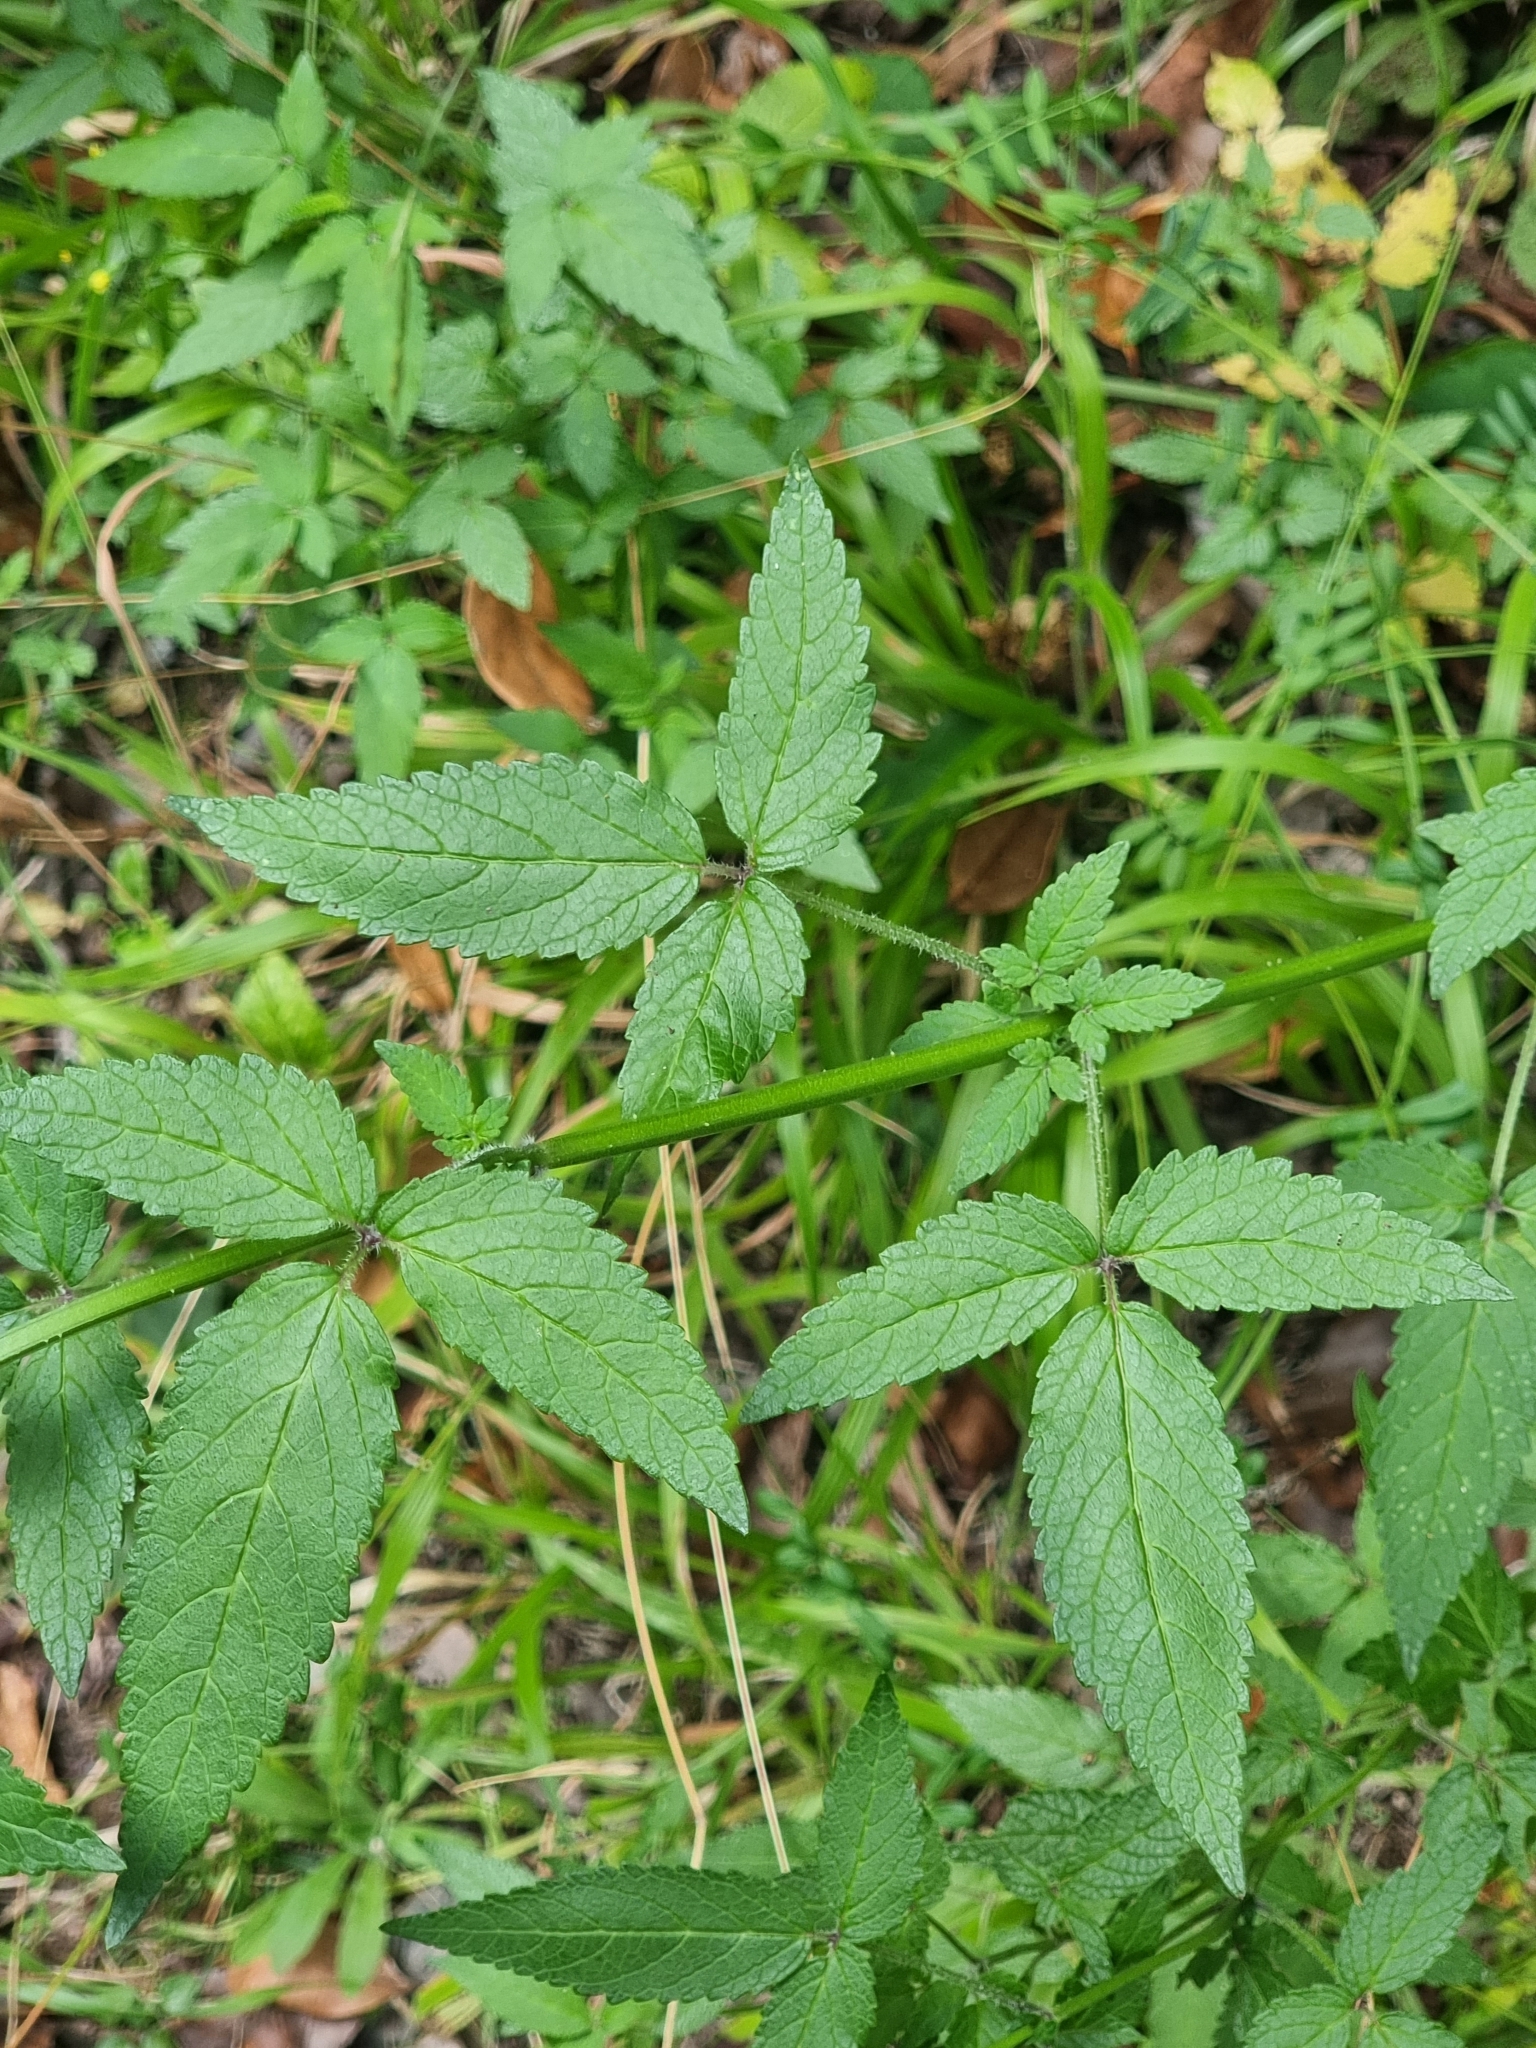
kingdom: Plantae
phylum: Tracheophyta
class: Magnoliopsida
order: Lamiales
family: Lamiaceae
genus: Cedronella
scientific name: Cedronella canariensis
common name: Canary islands balm
